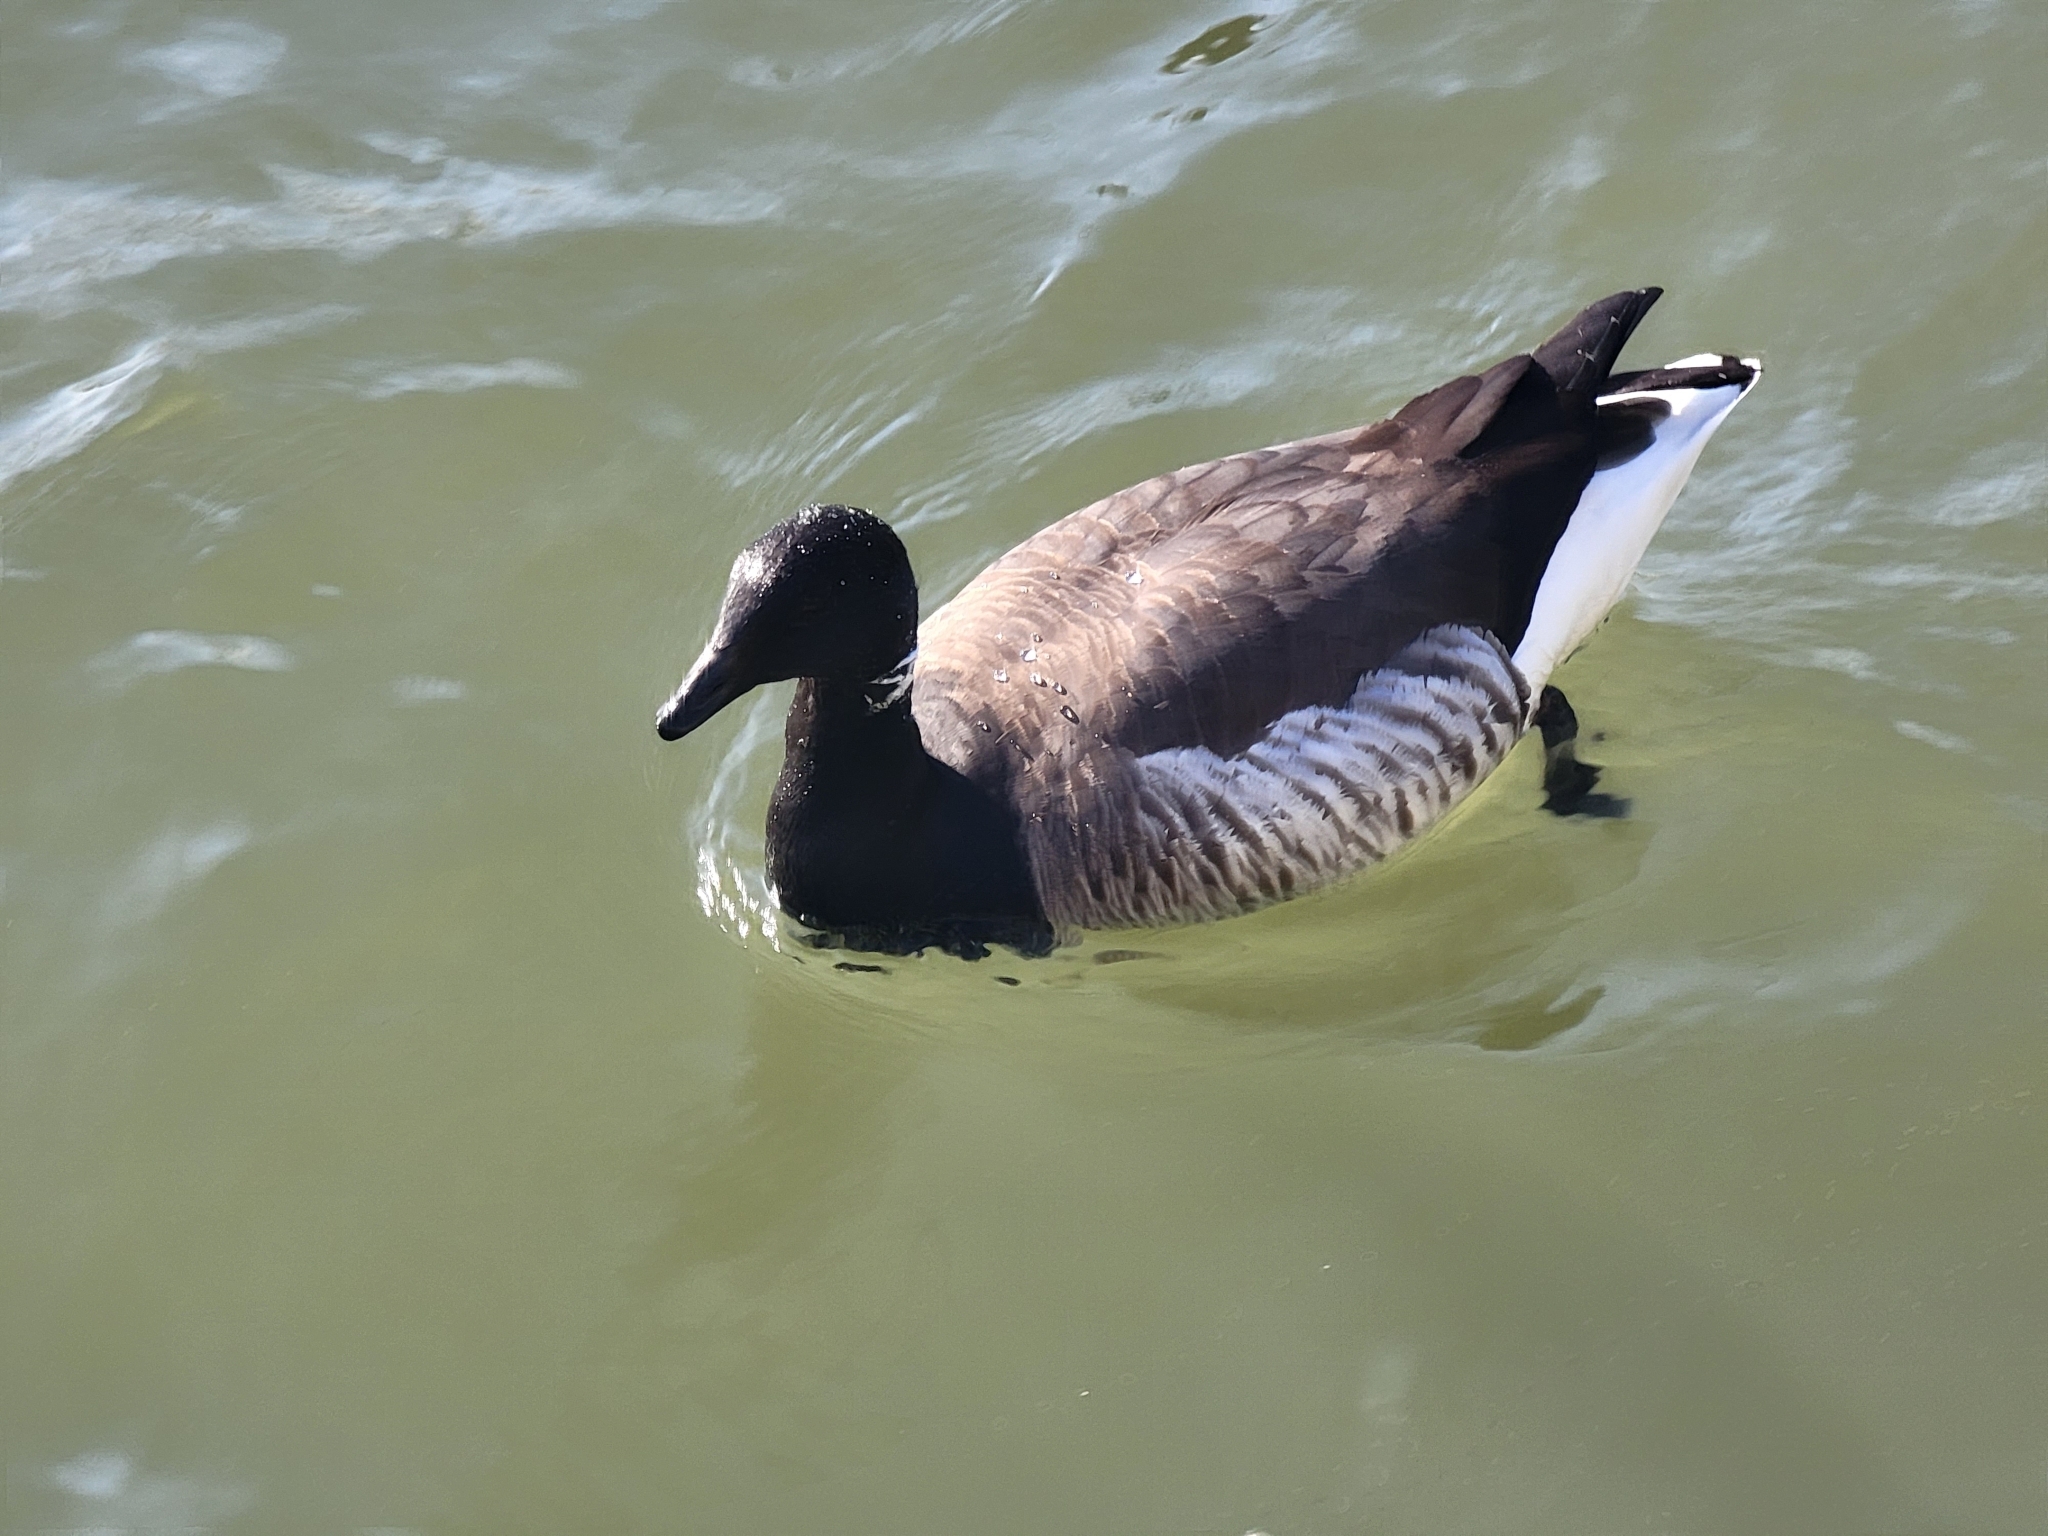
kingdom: Animalia
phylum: Chordata
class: Aves
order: Anseriformes
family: Anatidae
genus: Branta
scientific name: Branta bernicla
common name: Brant goose
